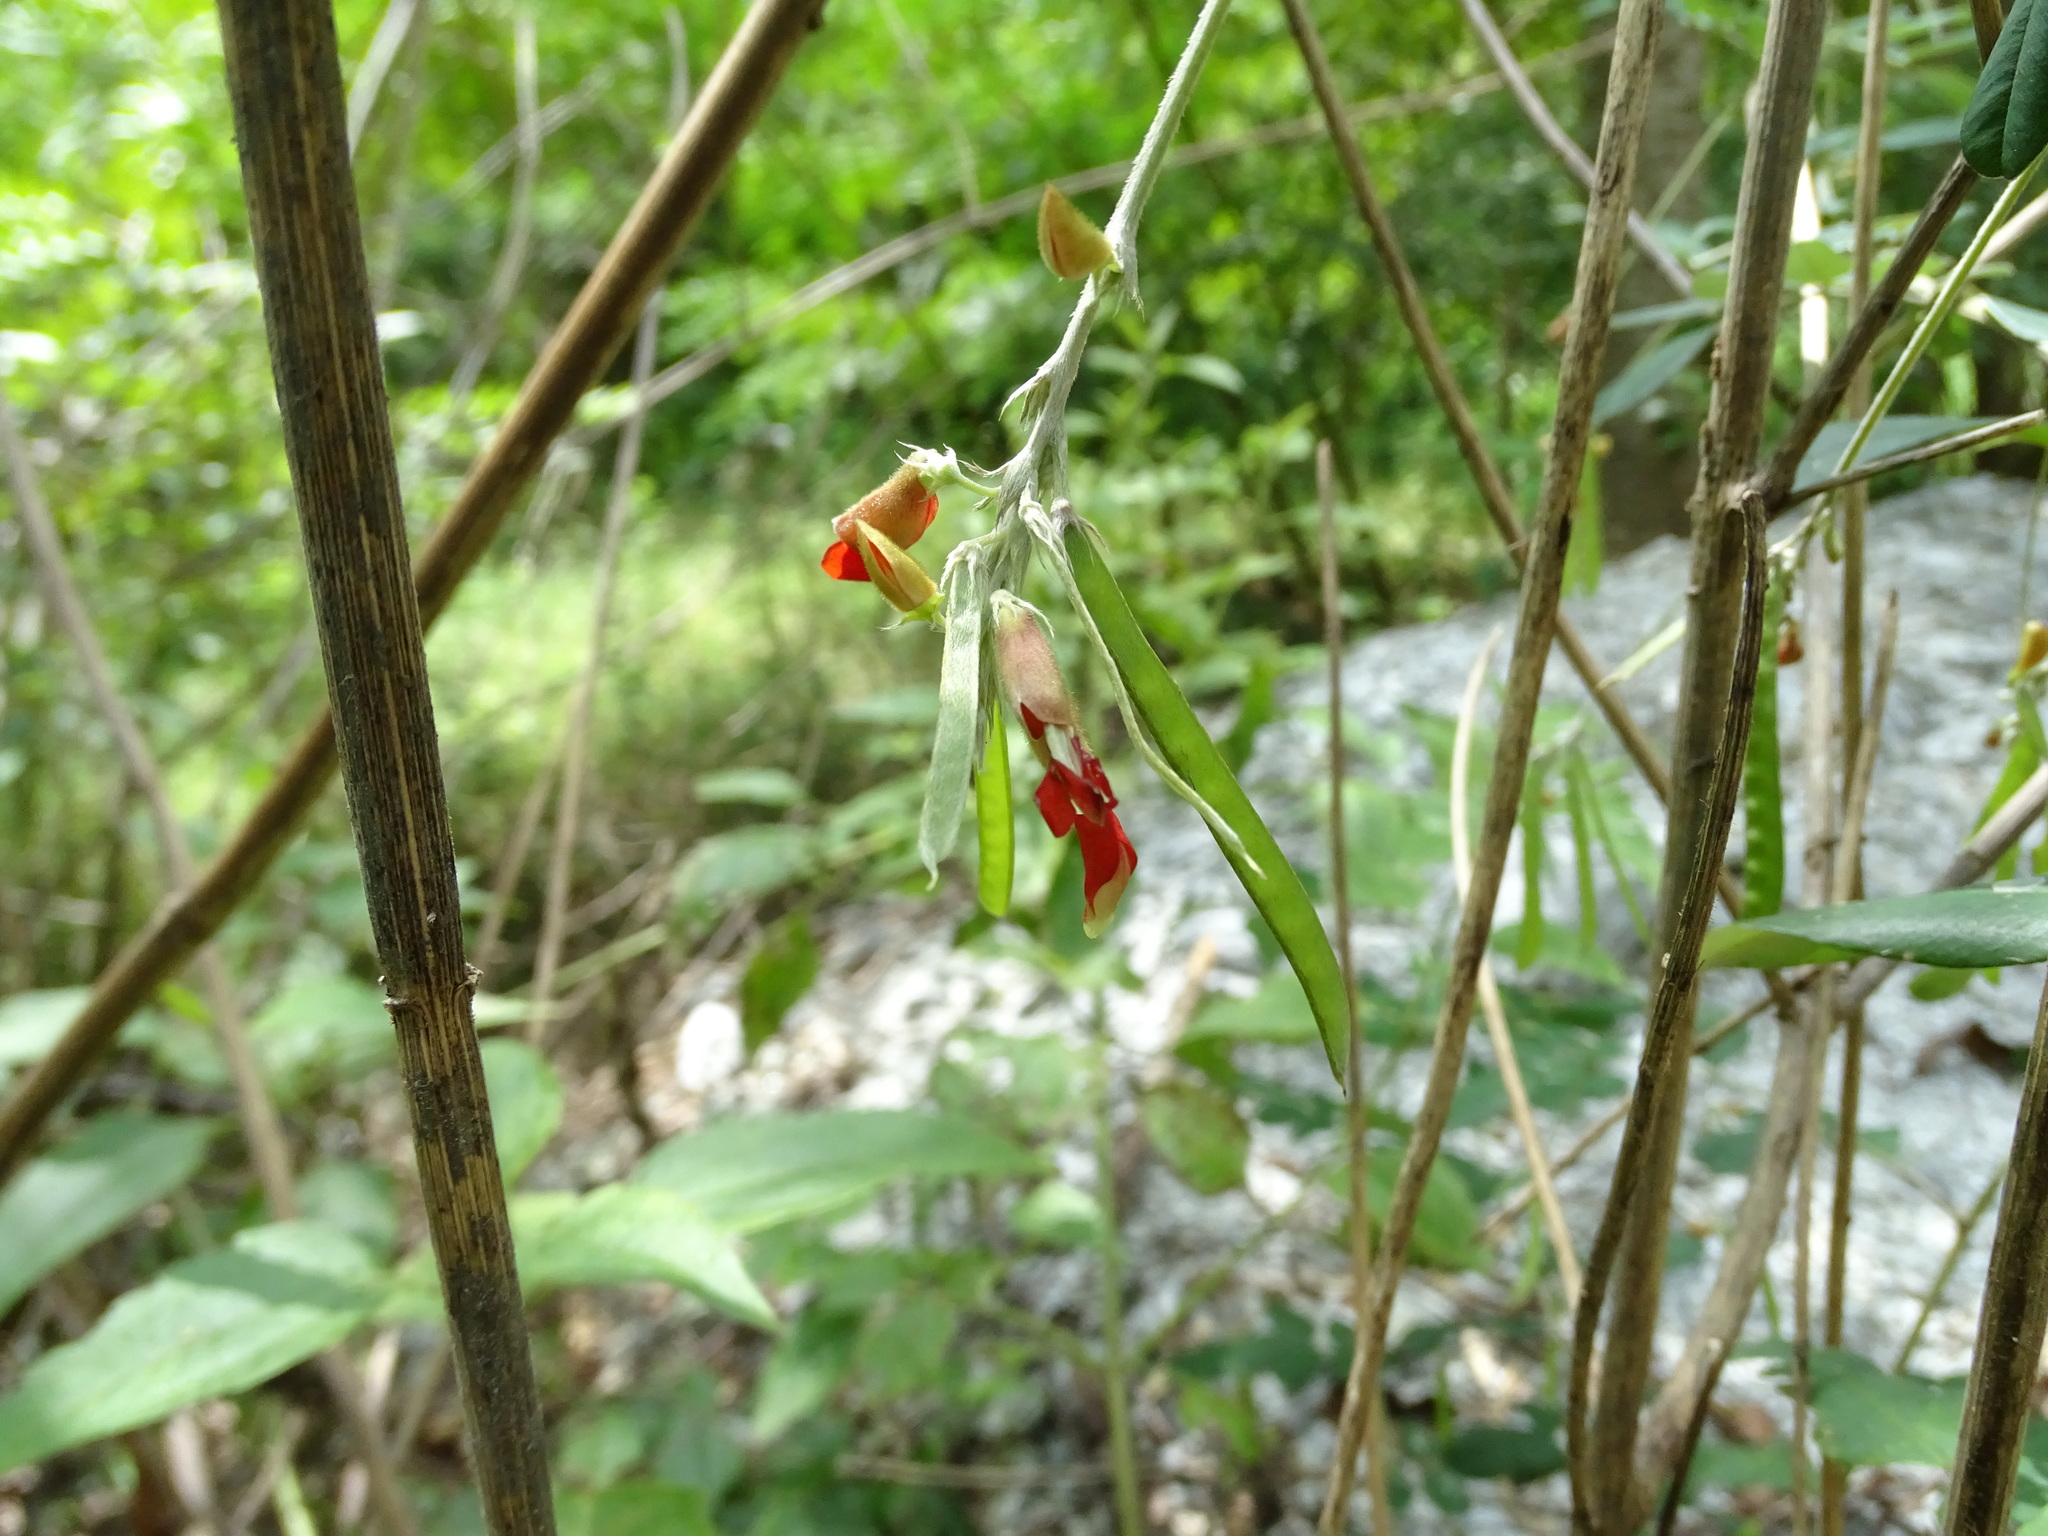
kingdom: Plantae
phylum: Tracheophyta
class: Magnoliopsida
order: Fabales
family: Fabaceae
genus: Tephrosia
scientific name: Tephrosia tinctoria
